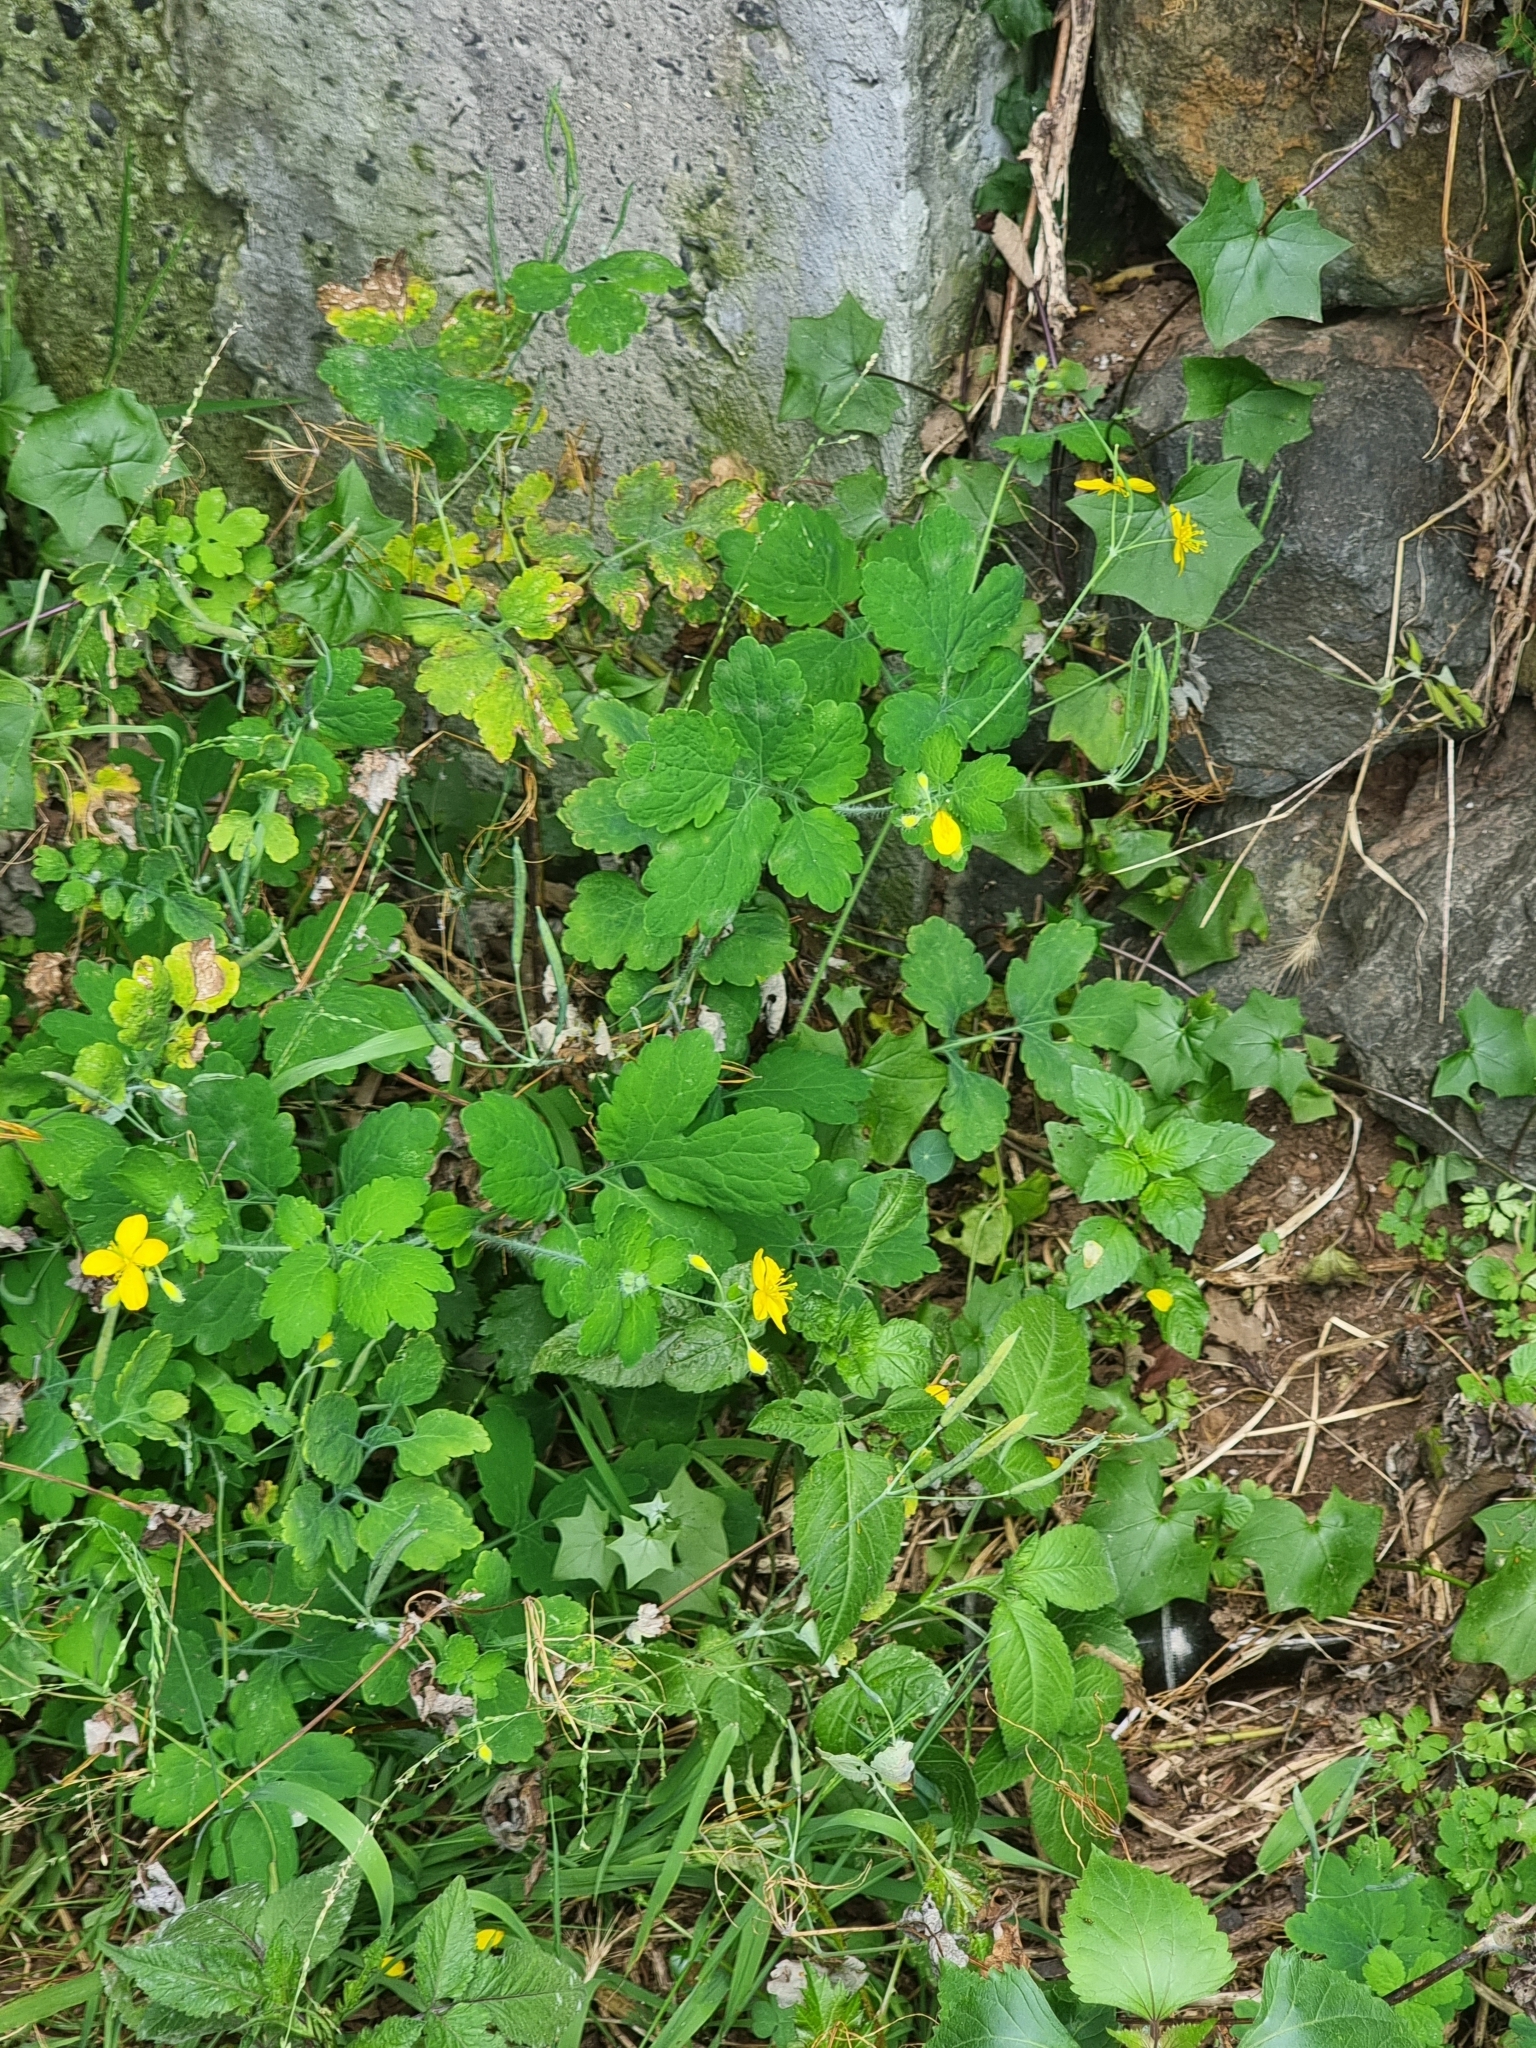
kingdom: Plantae
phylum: Tracheophyta
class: Magnoliopsida
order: Ranunculales
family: Papaveraceae
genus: Chelidonium
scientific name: Chelidonium majus
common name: Greater celandine
